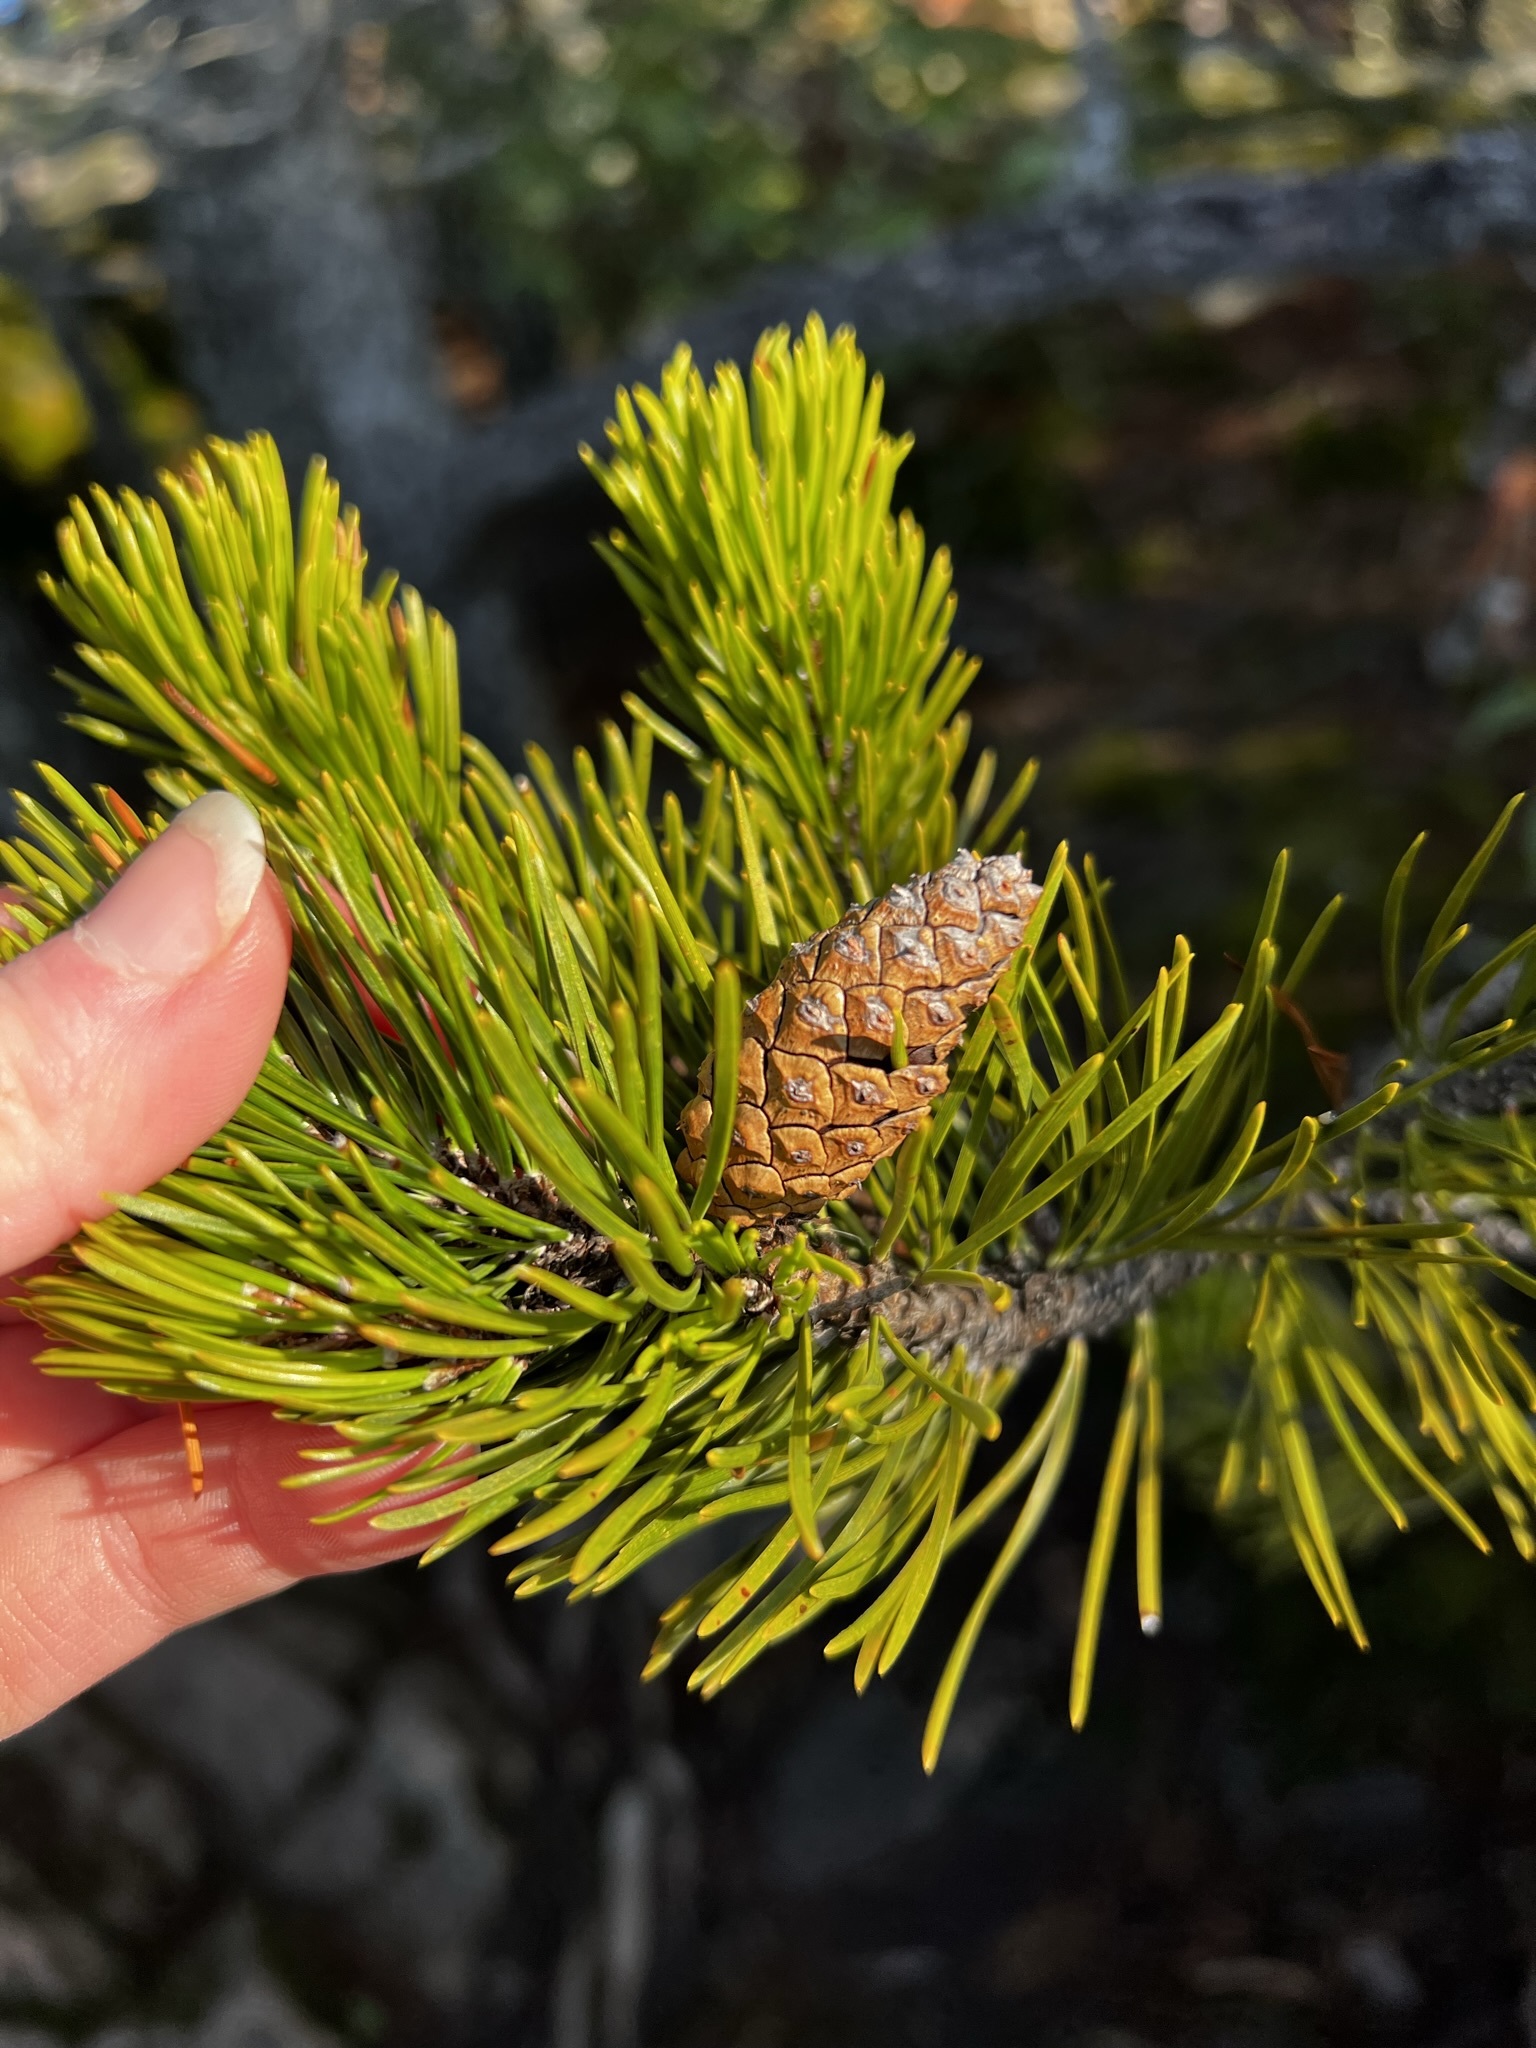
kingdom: Plantae
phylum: Tracheophyta
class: Pinopsida
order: Pinales
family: Pinaceae
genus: Pinus
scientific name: Pinus contorta
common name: Lodgepole pine
